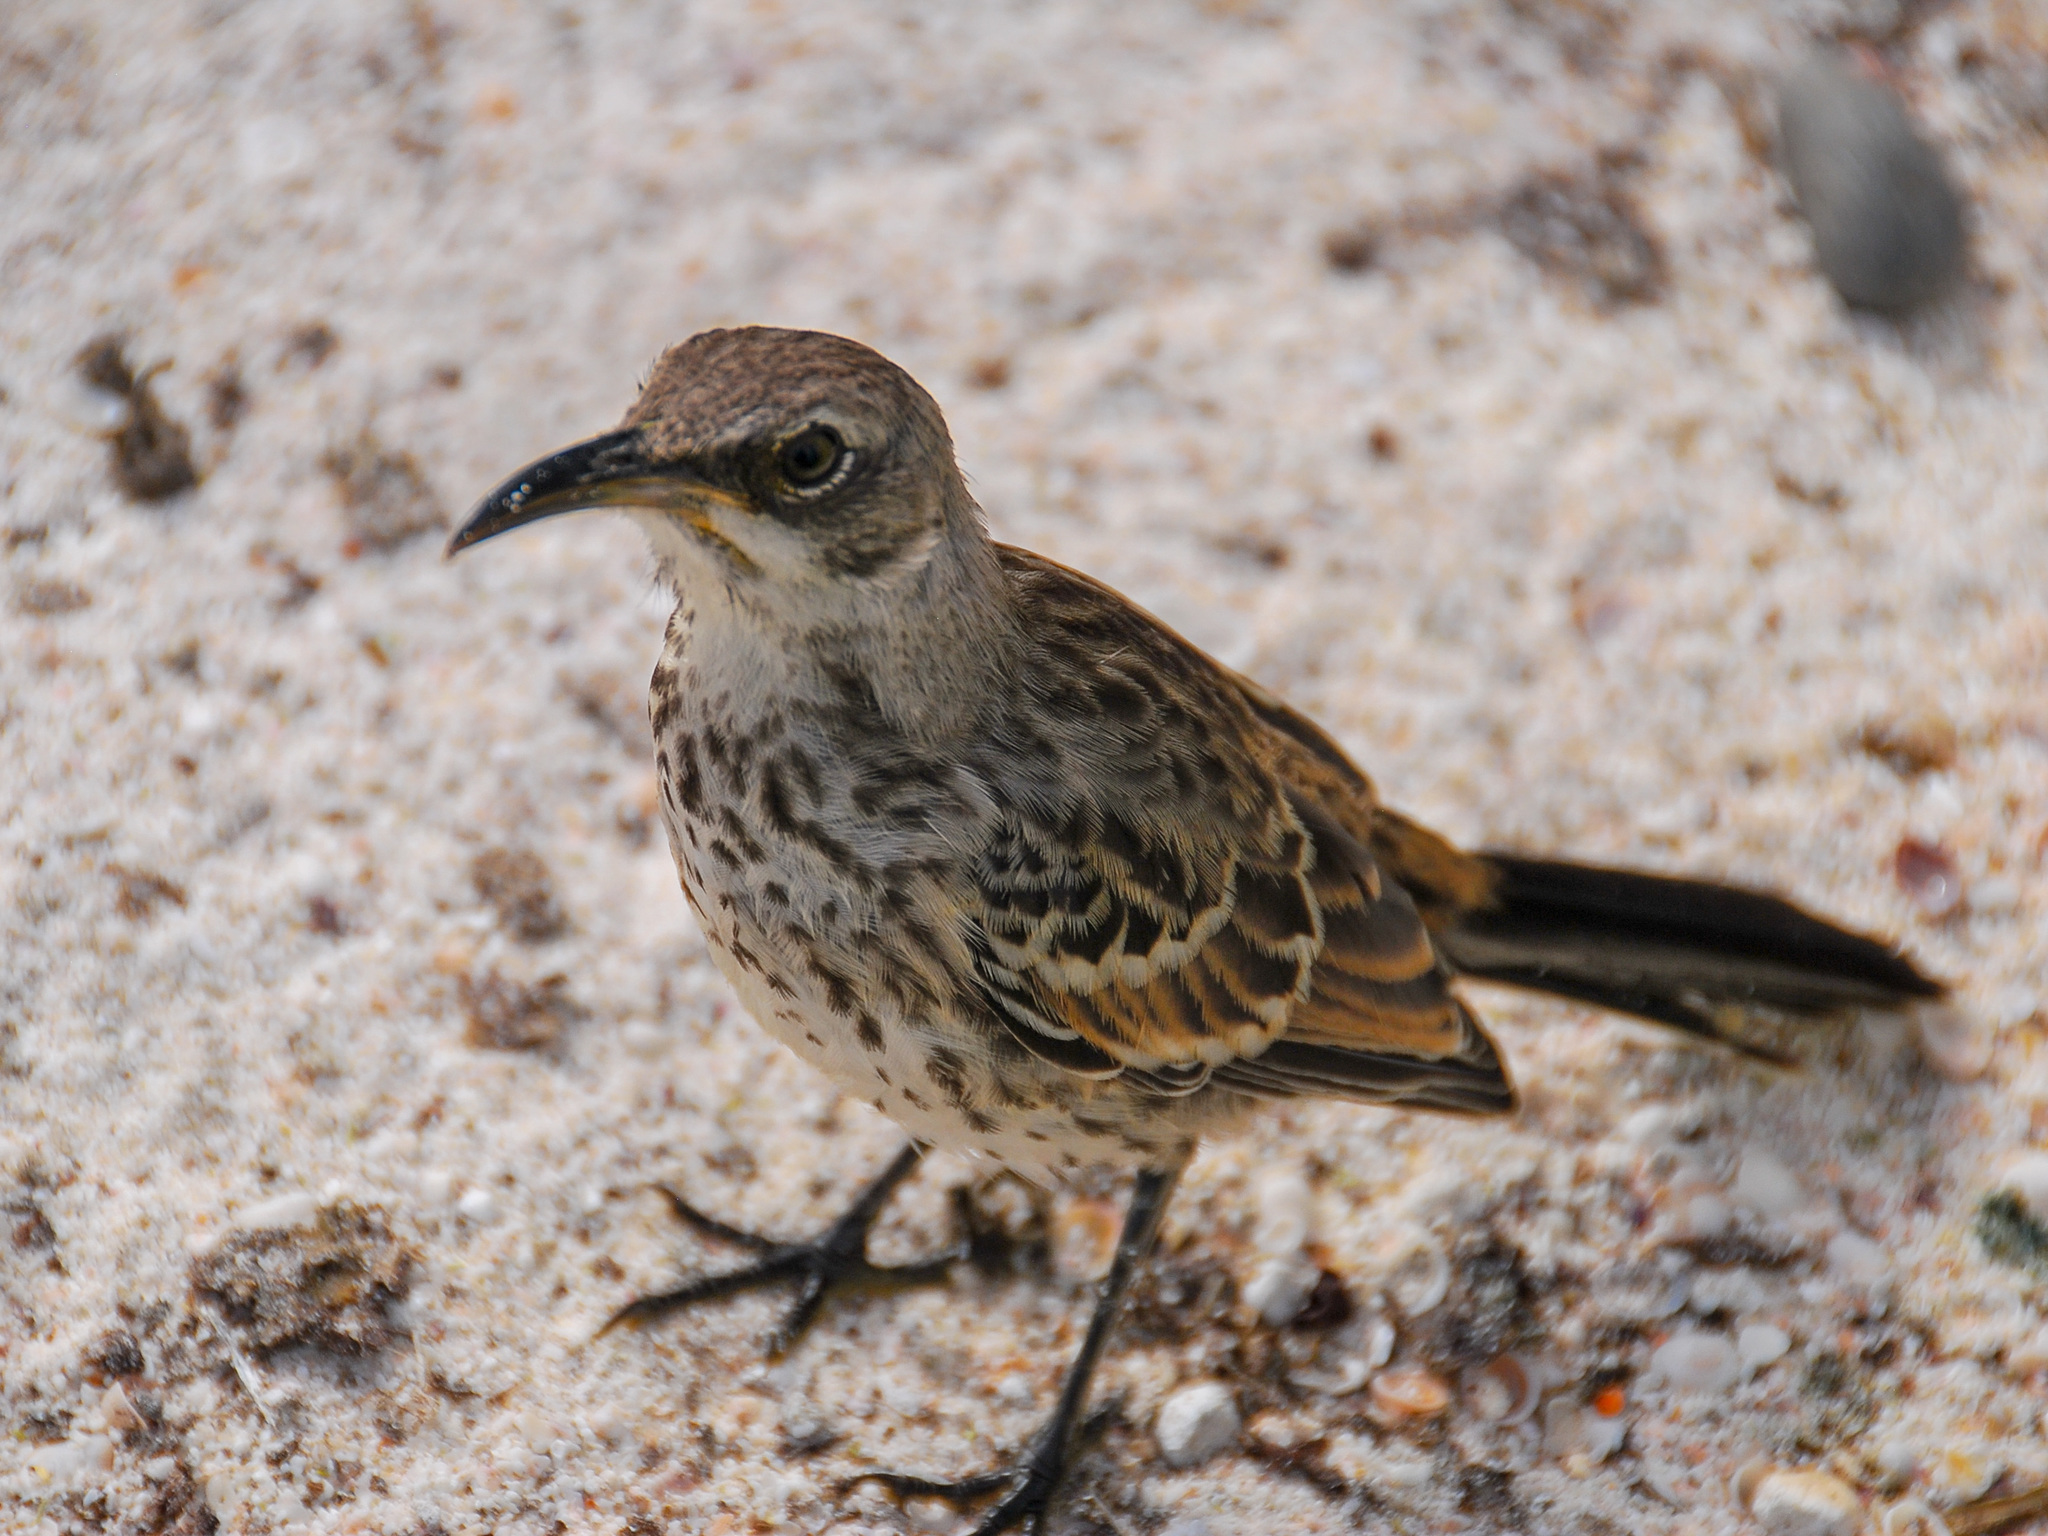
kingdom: Animalia
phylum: Chordata
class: Aves
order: Passeriformes
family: Mimidae
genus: Mimus
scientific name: Mimus macdonaldi
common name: Espanola mockingbird
